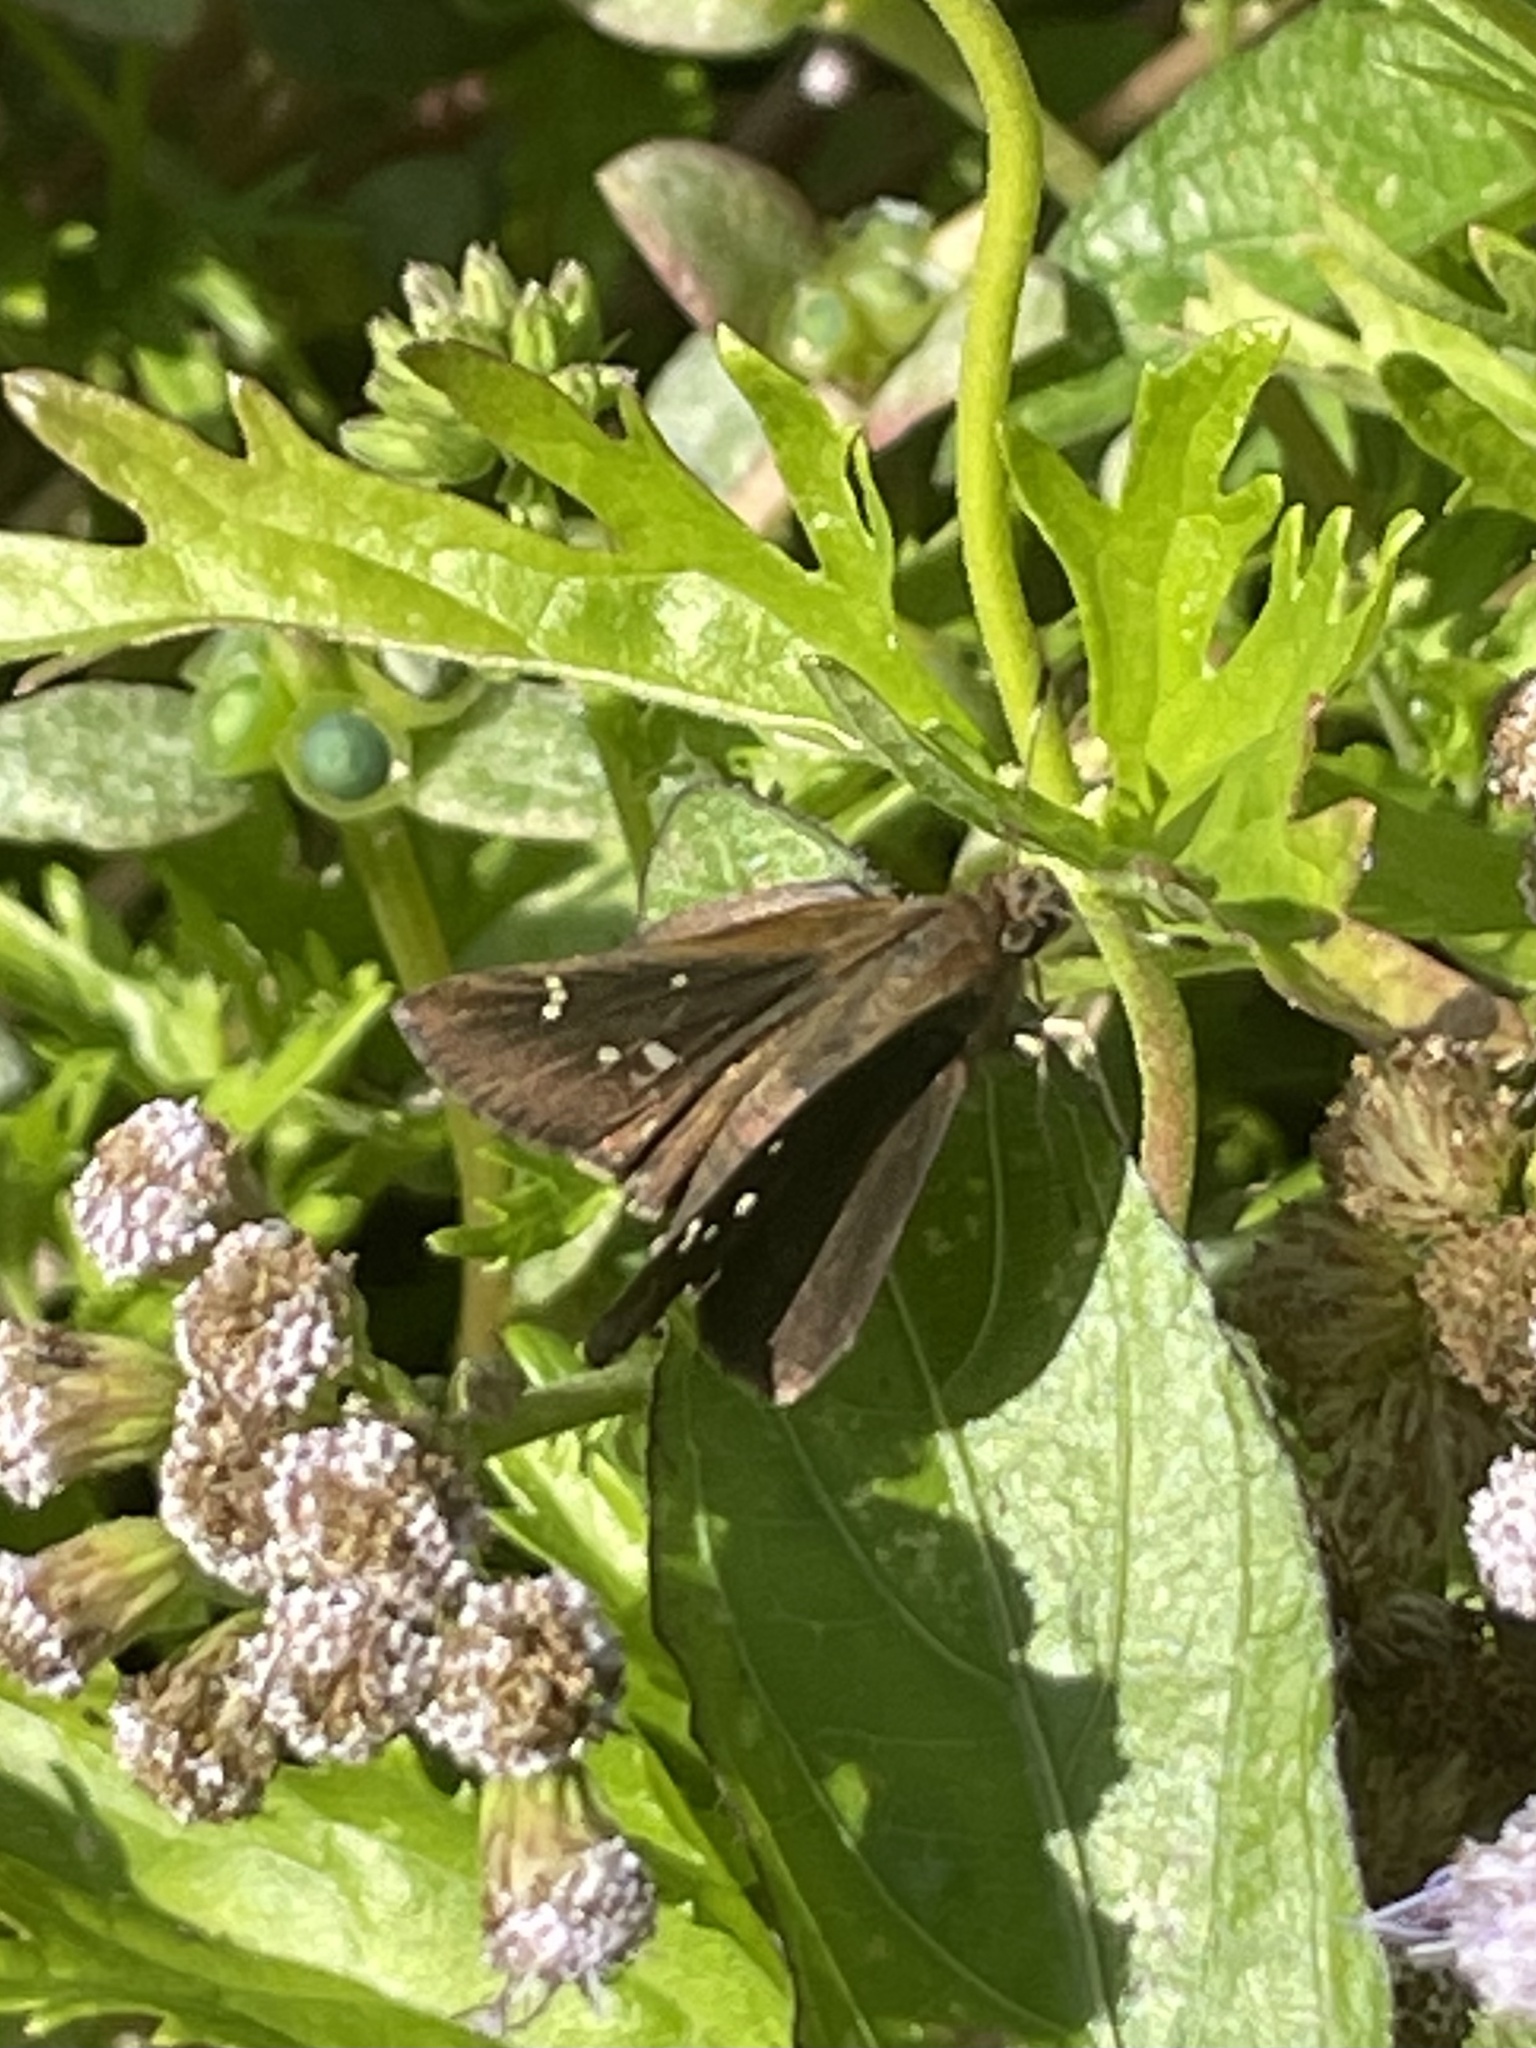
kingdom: Animalia
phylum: Arthropoda
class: Insecta
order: Lepidoptera
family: Hesperiidae
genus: Lerema
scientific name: Lerema accius
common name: Clouded skipper
